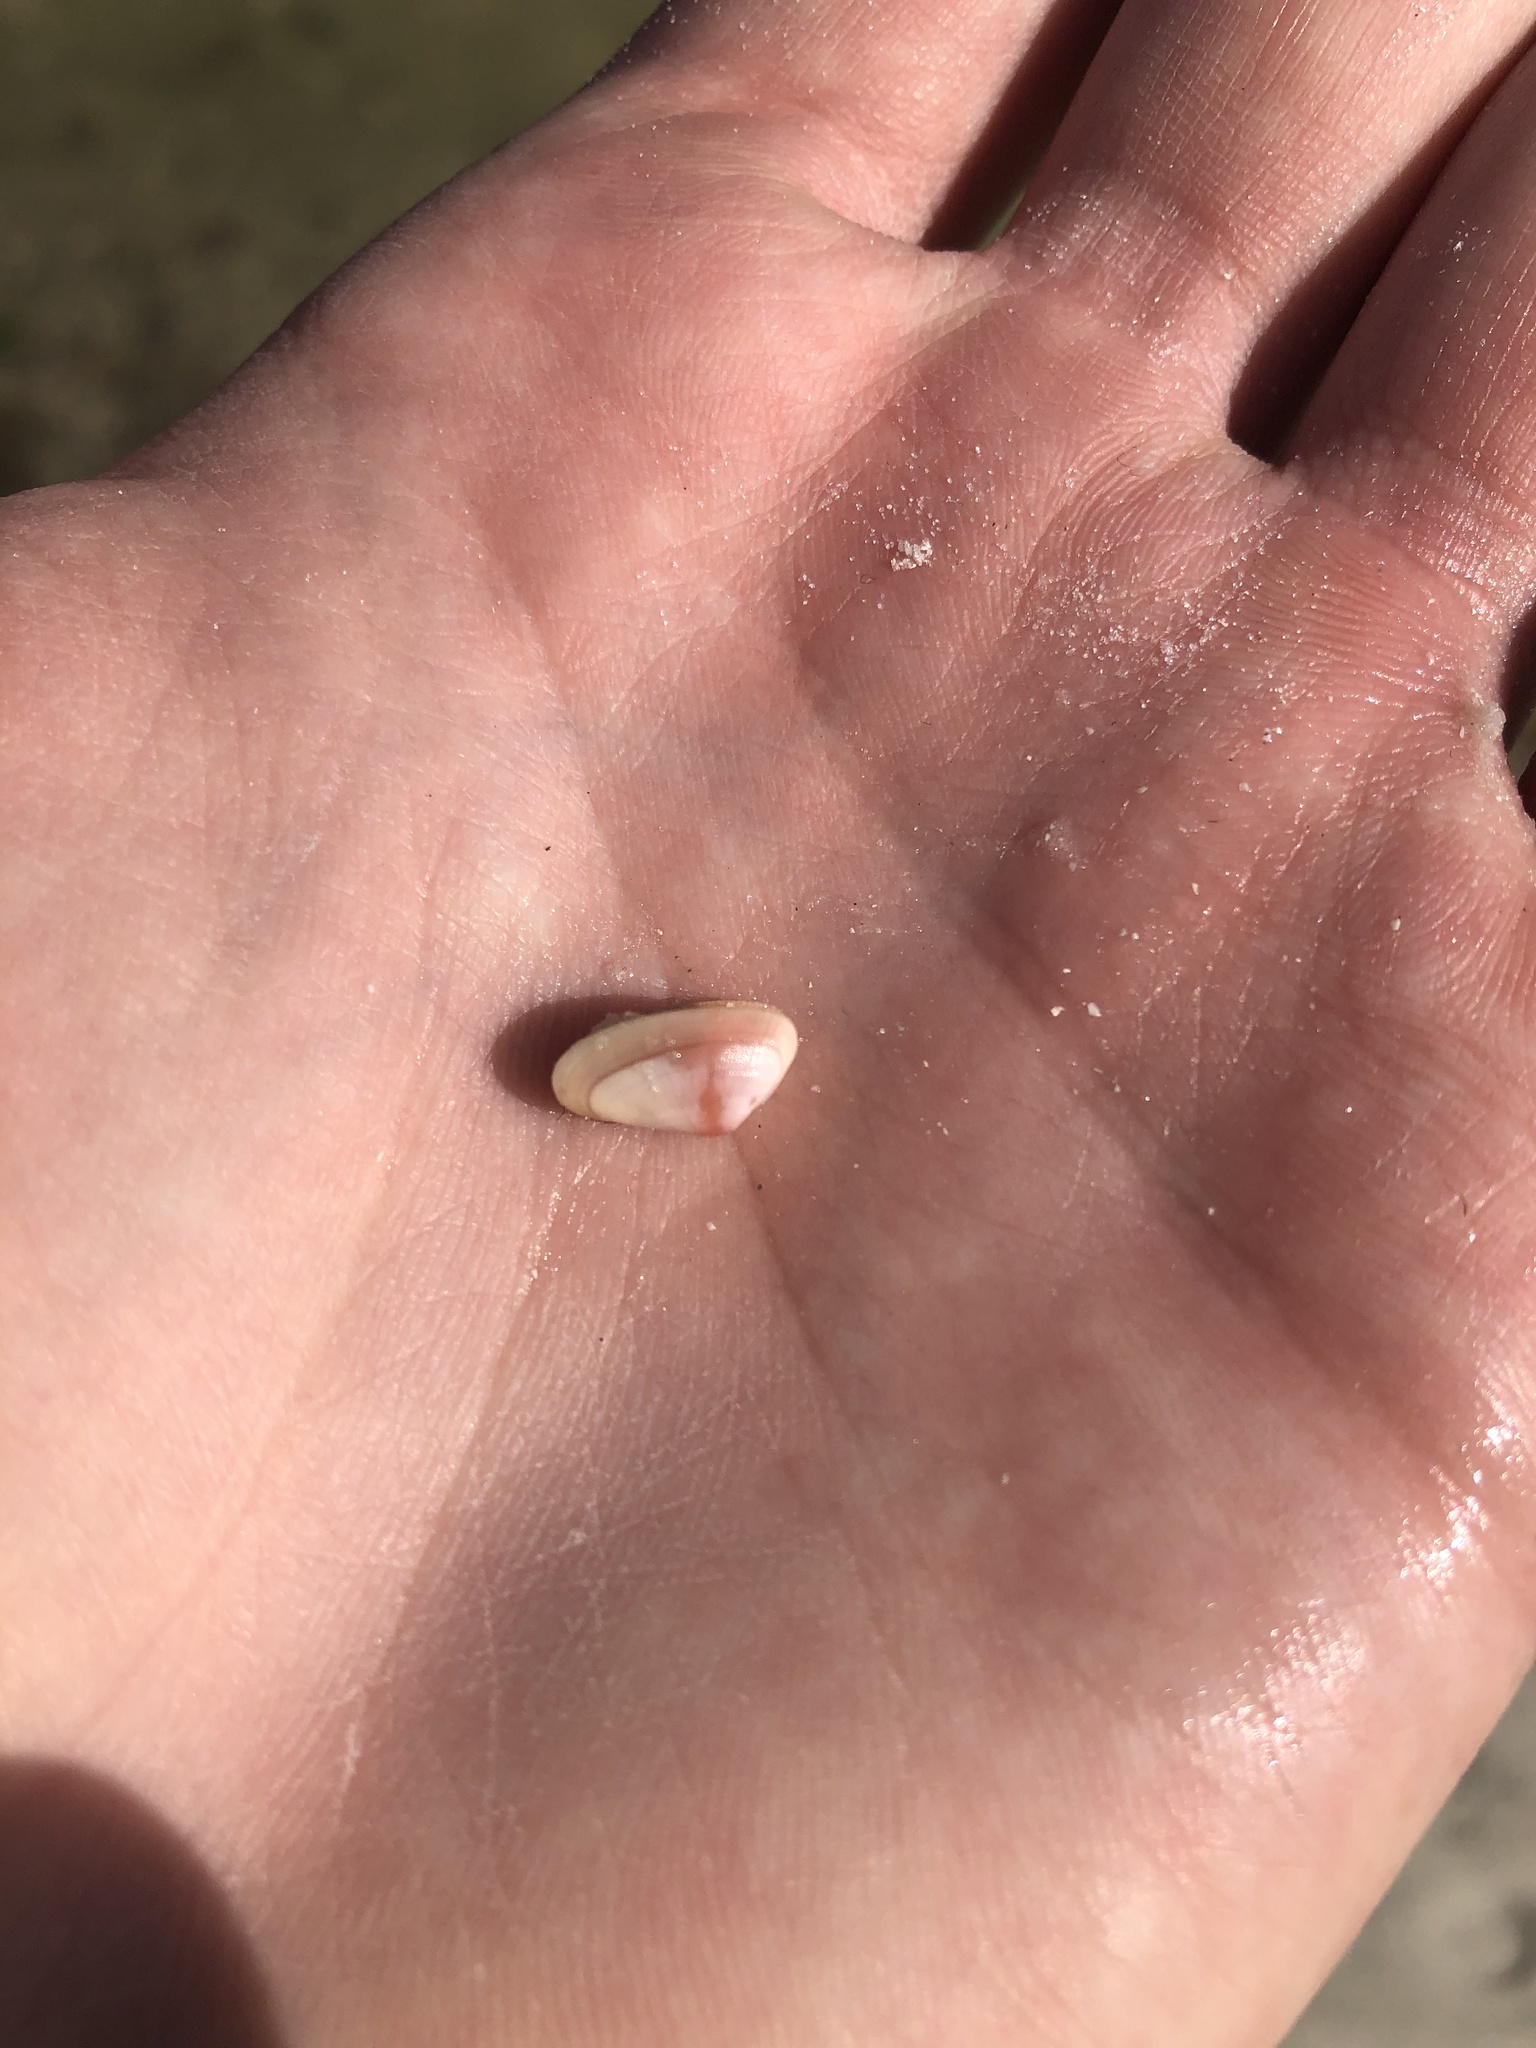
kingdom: Animalia
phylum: Mollusca
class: Bivalvia
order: Cardiida
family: Donacidae
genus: Donax
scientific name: Donax variabilis
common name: Butterfly shell
